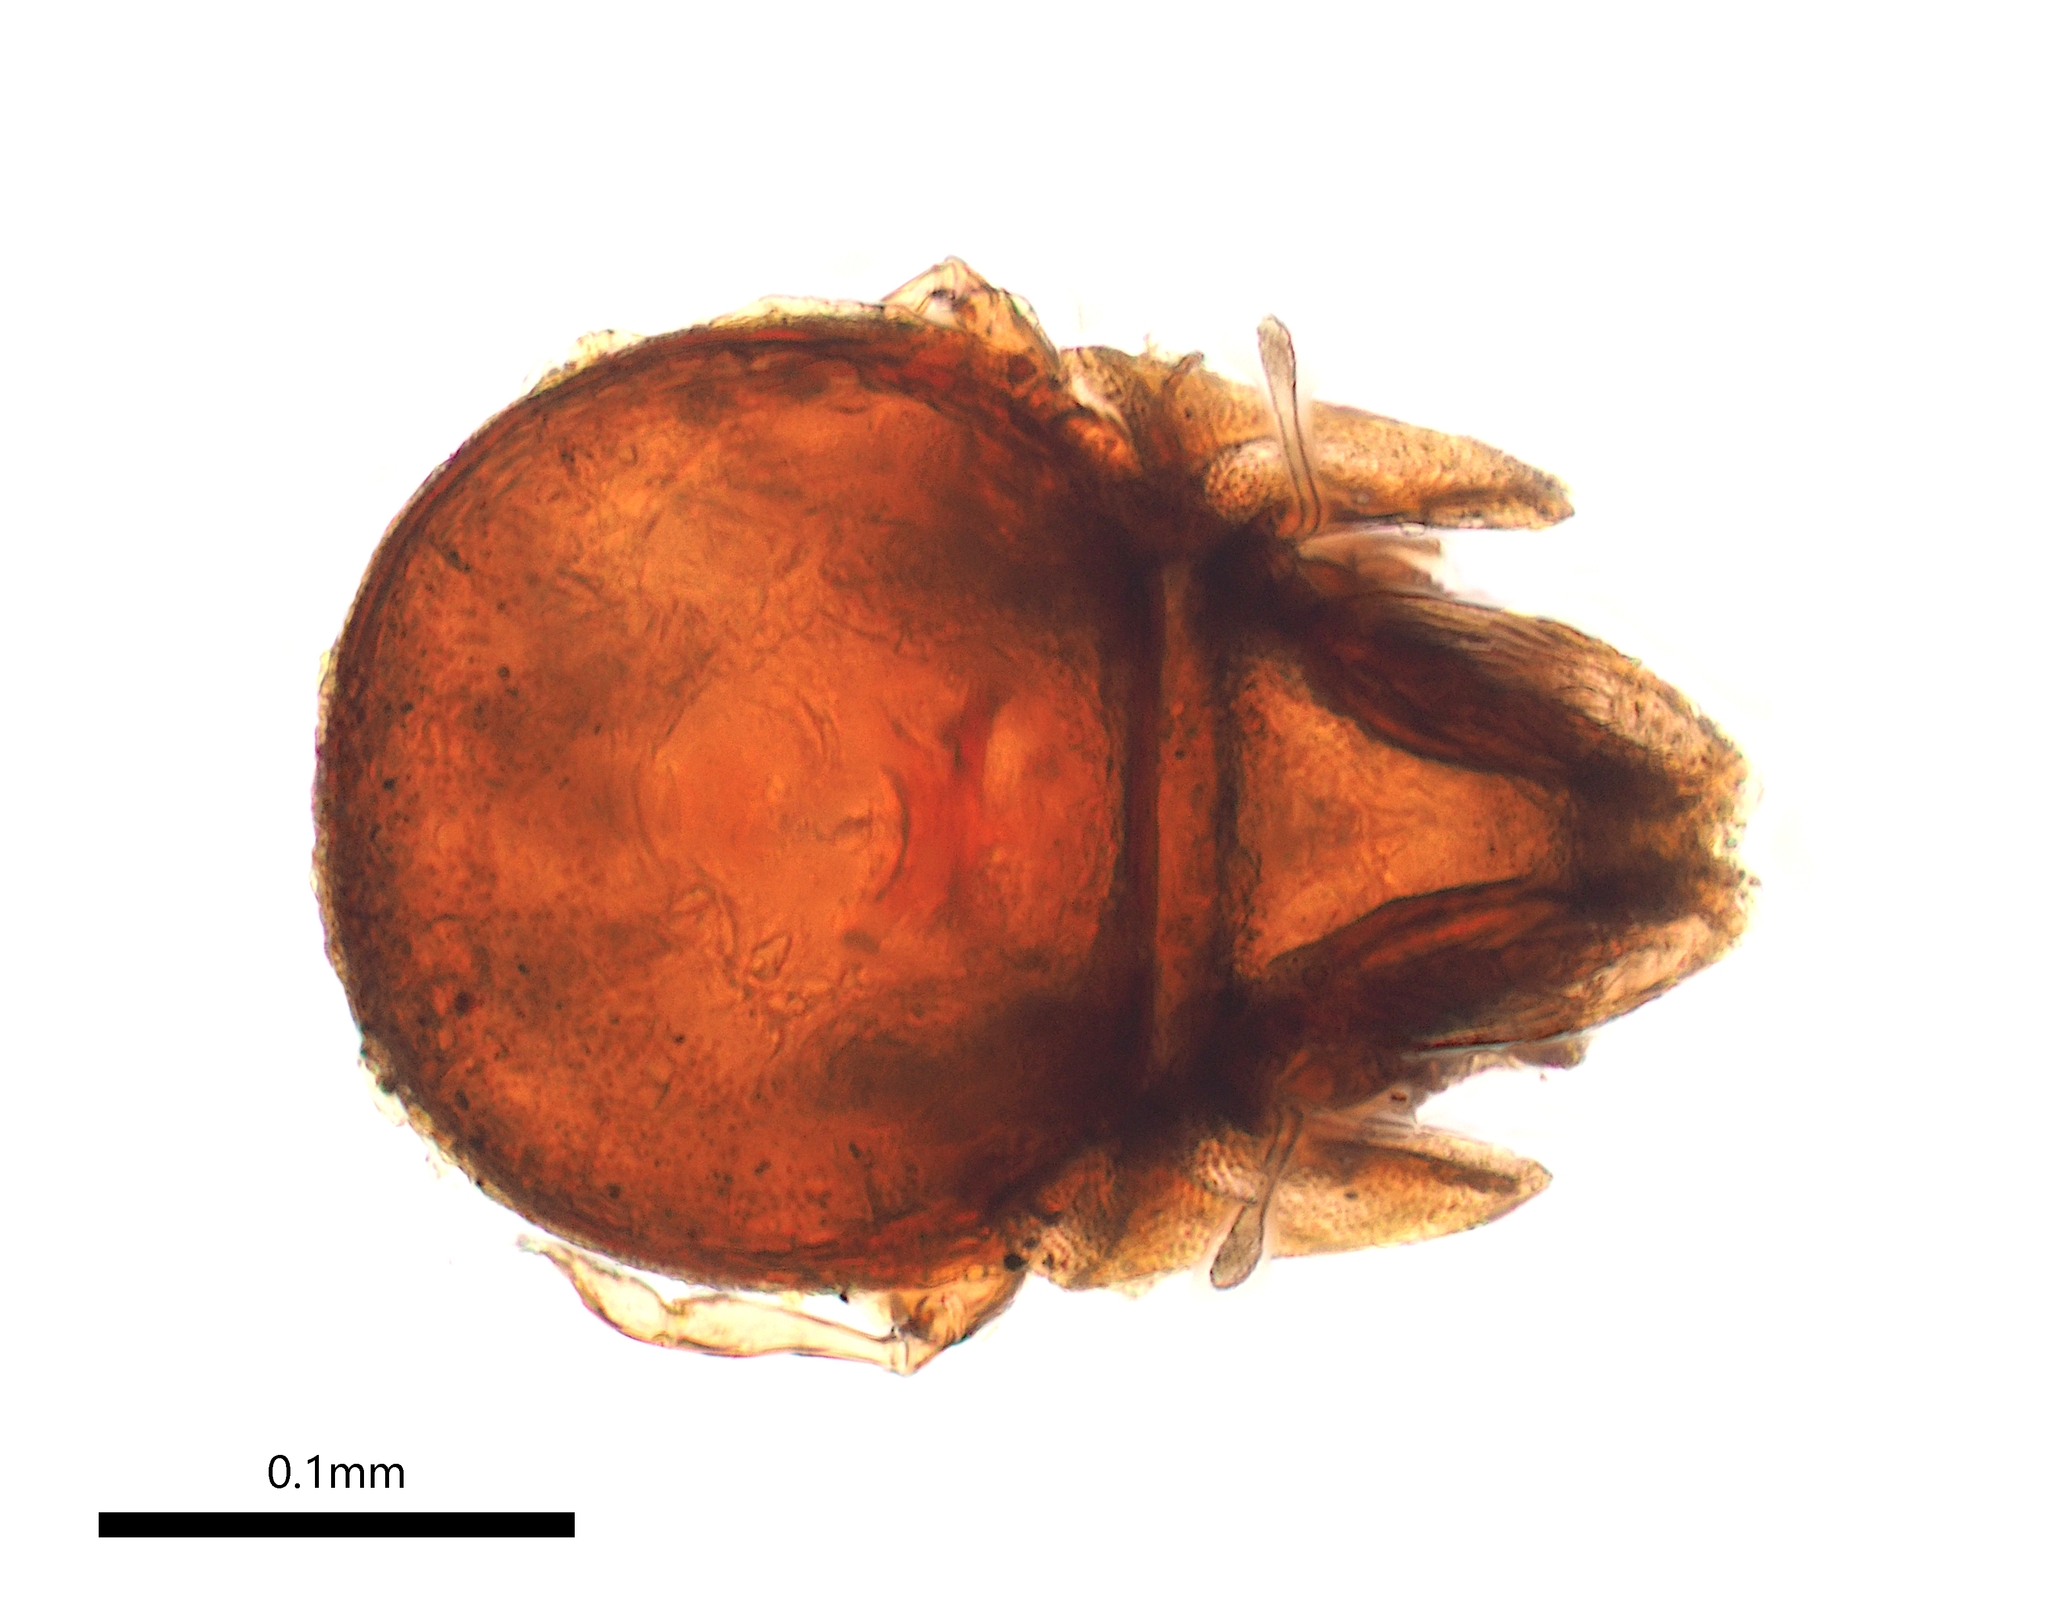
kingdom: Animalia
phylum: Arthropoda
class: Arachnida
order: Sarcoptiformes
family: Eutegaeidae
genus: Neoeutegaeus
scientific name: Neoeutegaeus
